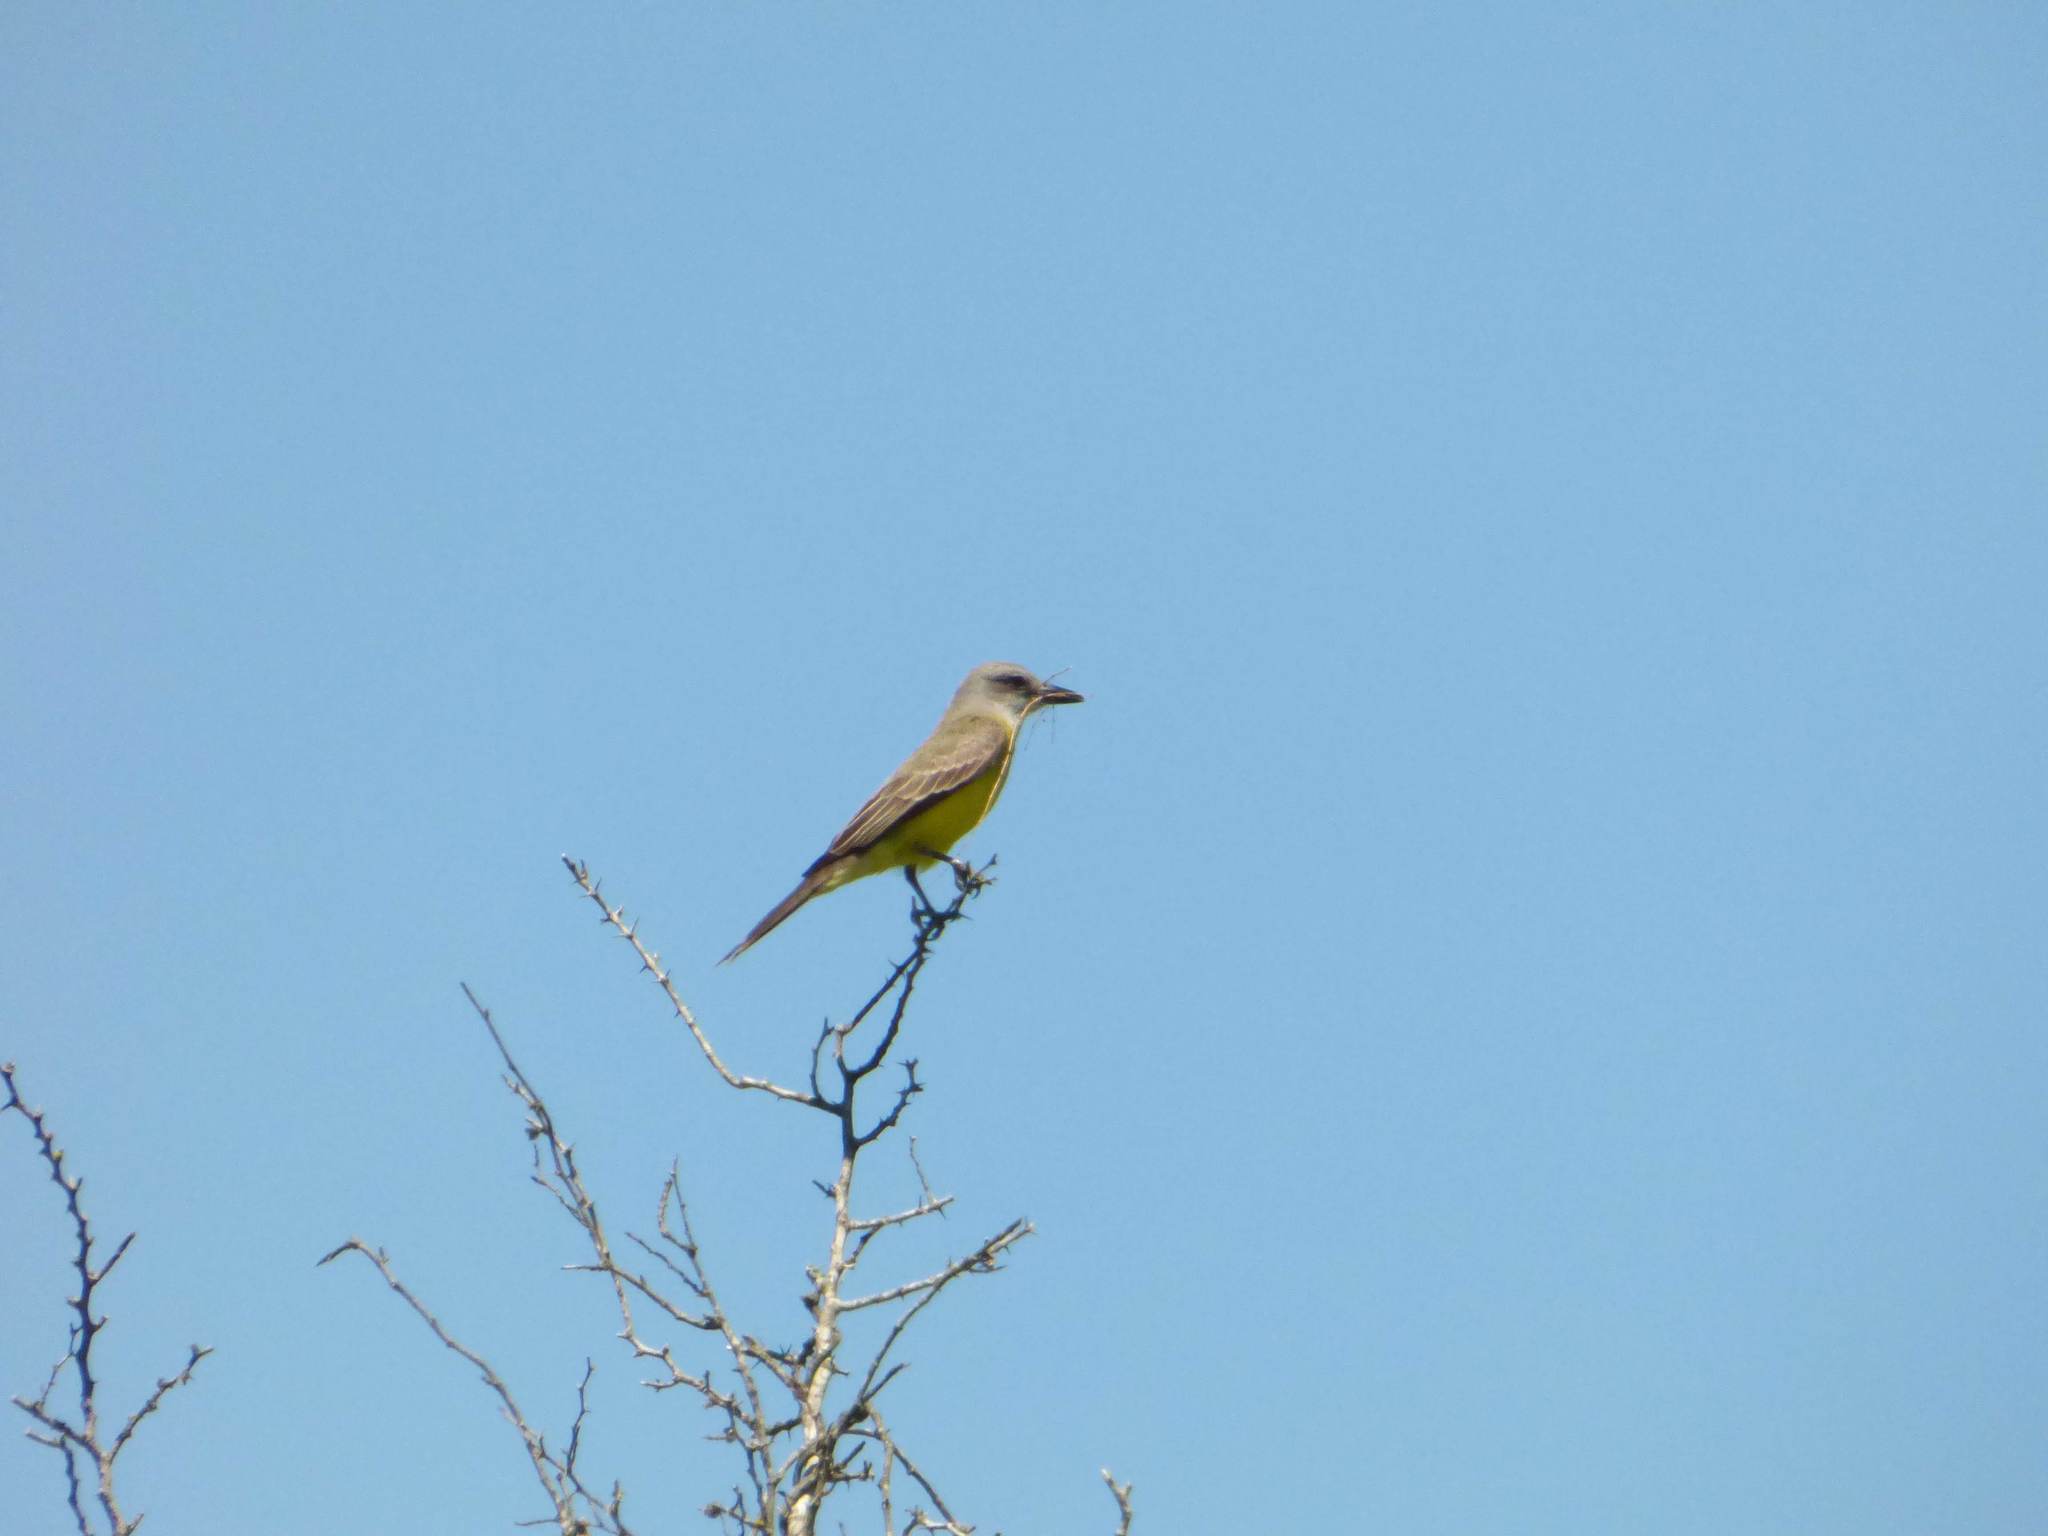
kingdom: Animalia
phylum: Chordata
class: Aves
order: Passeriformes
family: Tyrannidae
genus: Tyrannus
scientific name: Tyrannus melancholicus
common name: Tropical kingbird
